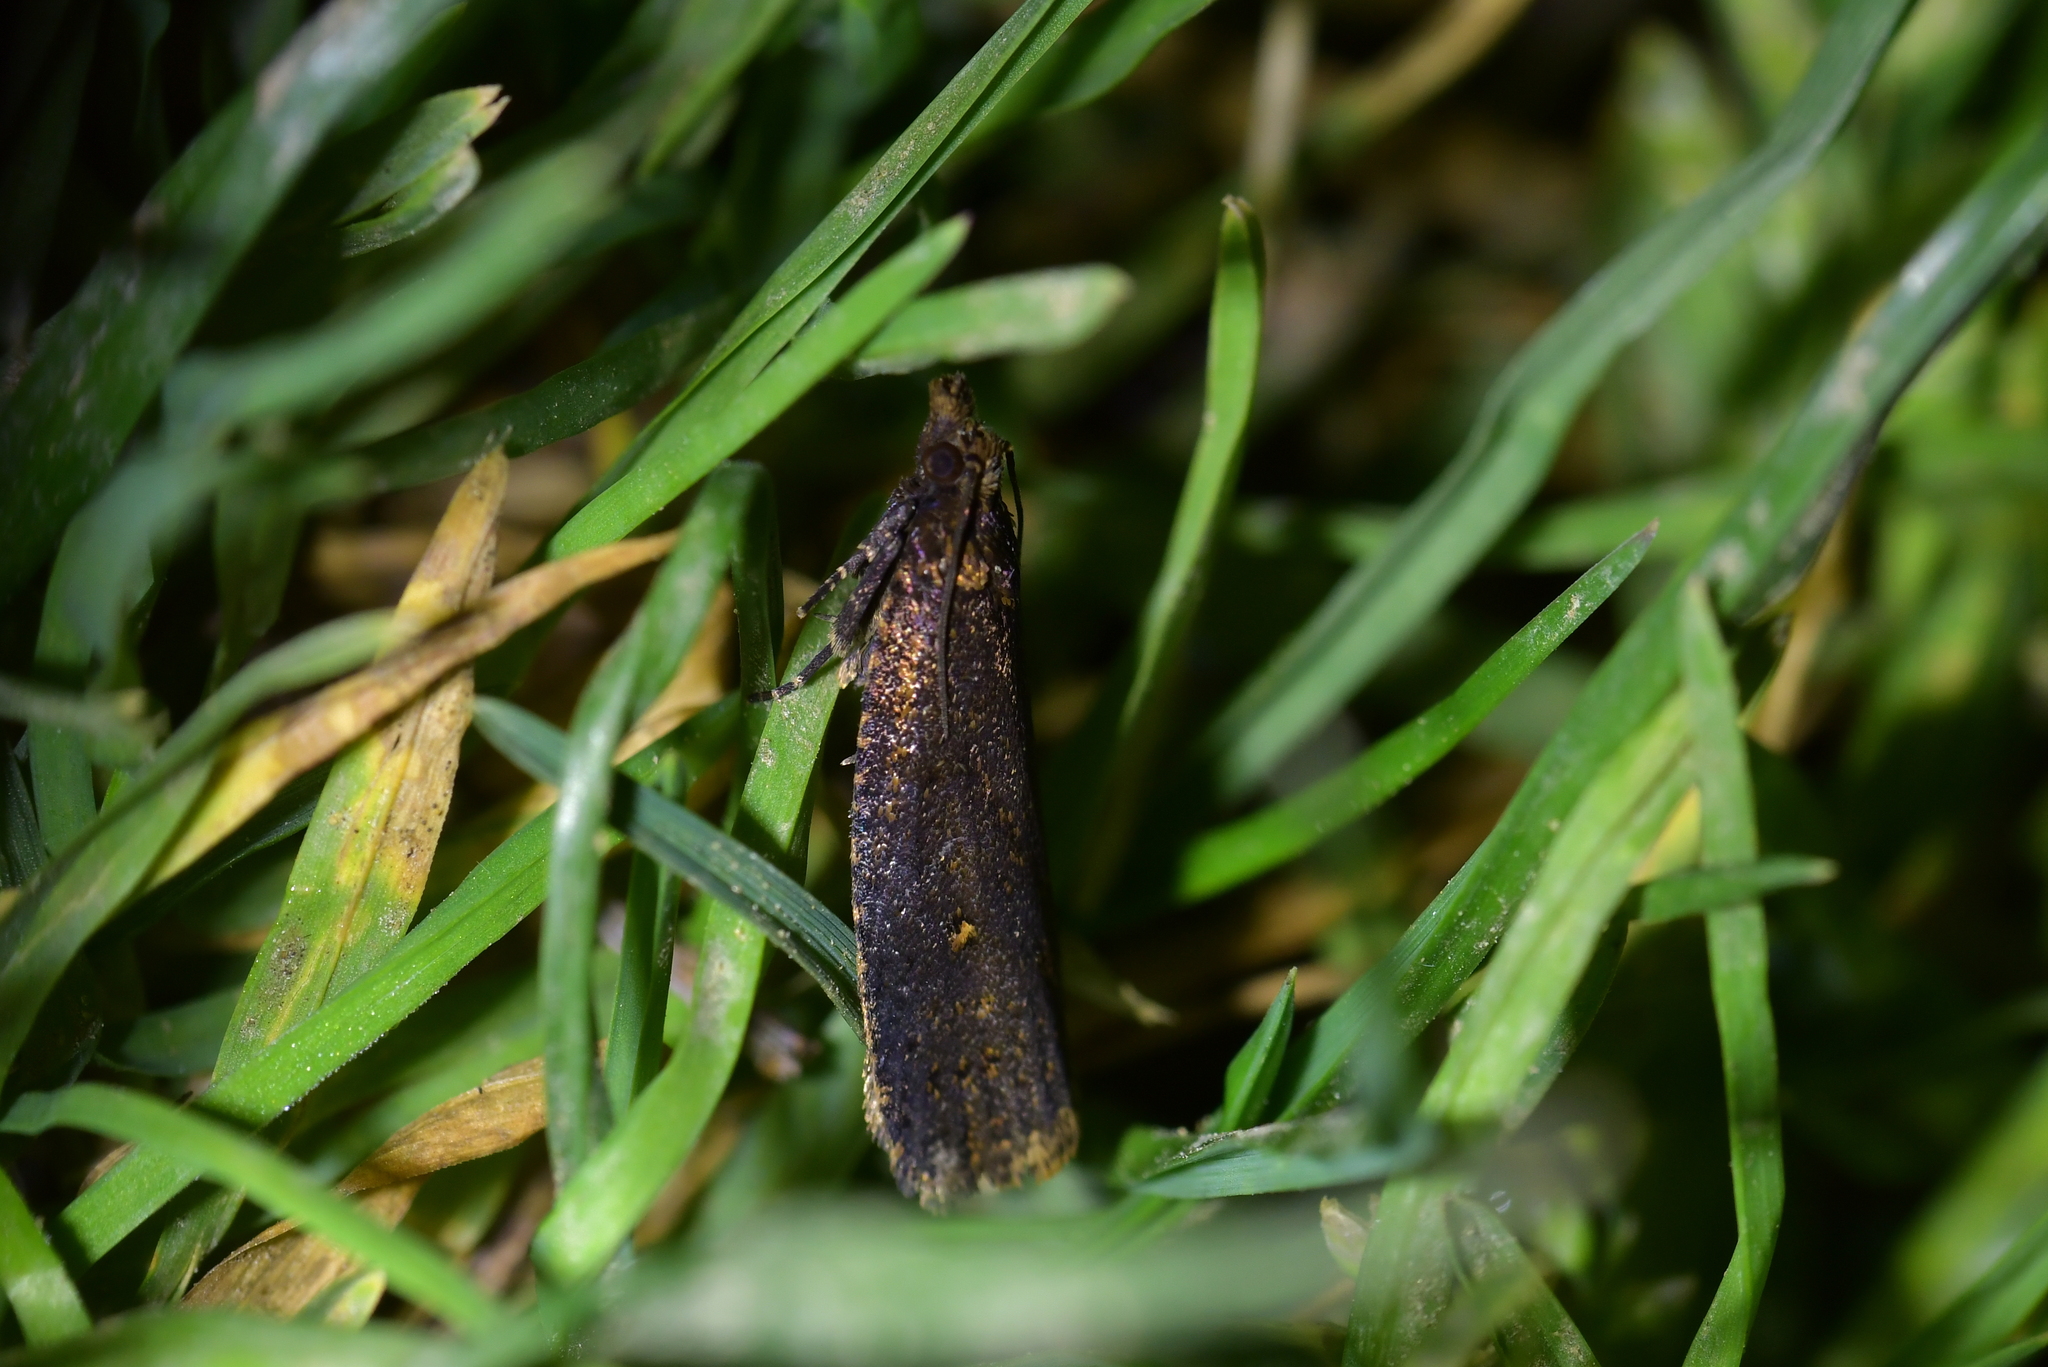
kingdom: Animalia
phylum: Arthropoda
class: Insecta
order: Lepidoptera
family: Tortricidae
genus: Cryptaspasma
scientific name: Cryptaspasma querula
